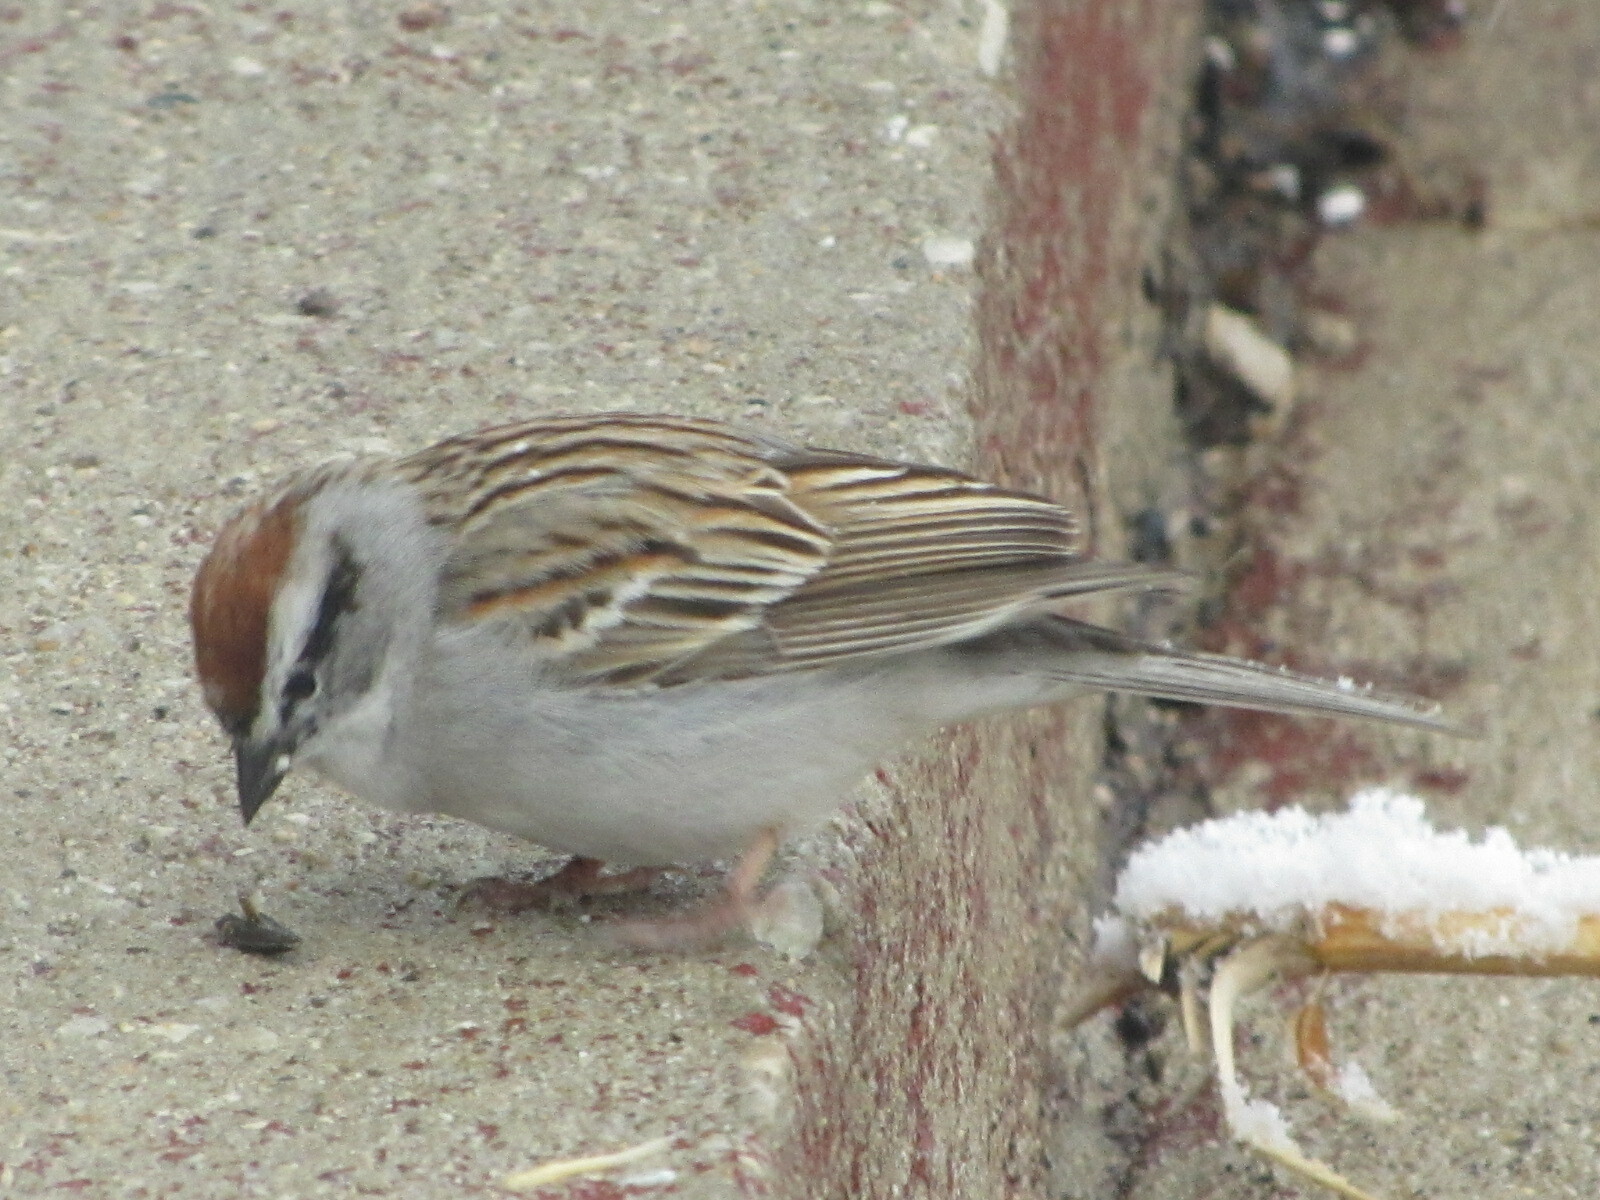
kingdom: Animalia
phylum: Chordata
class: Aves
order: Passeriformes
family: Passerellidae
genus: Spizella
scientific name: Spizella passerina
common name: Chipping sparrow
